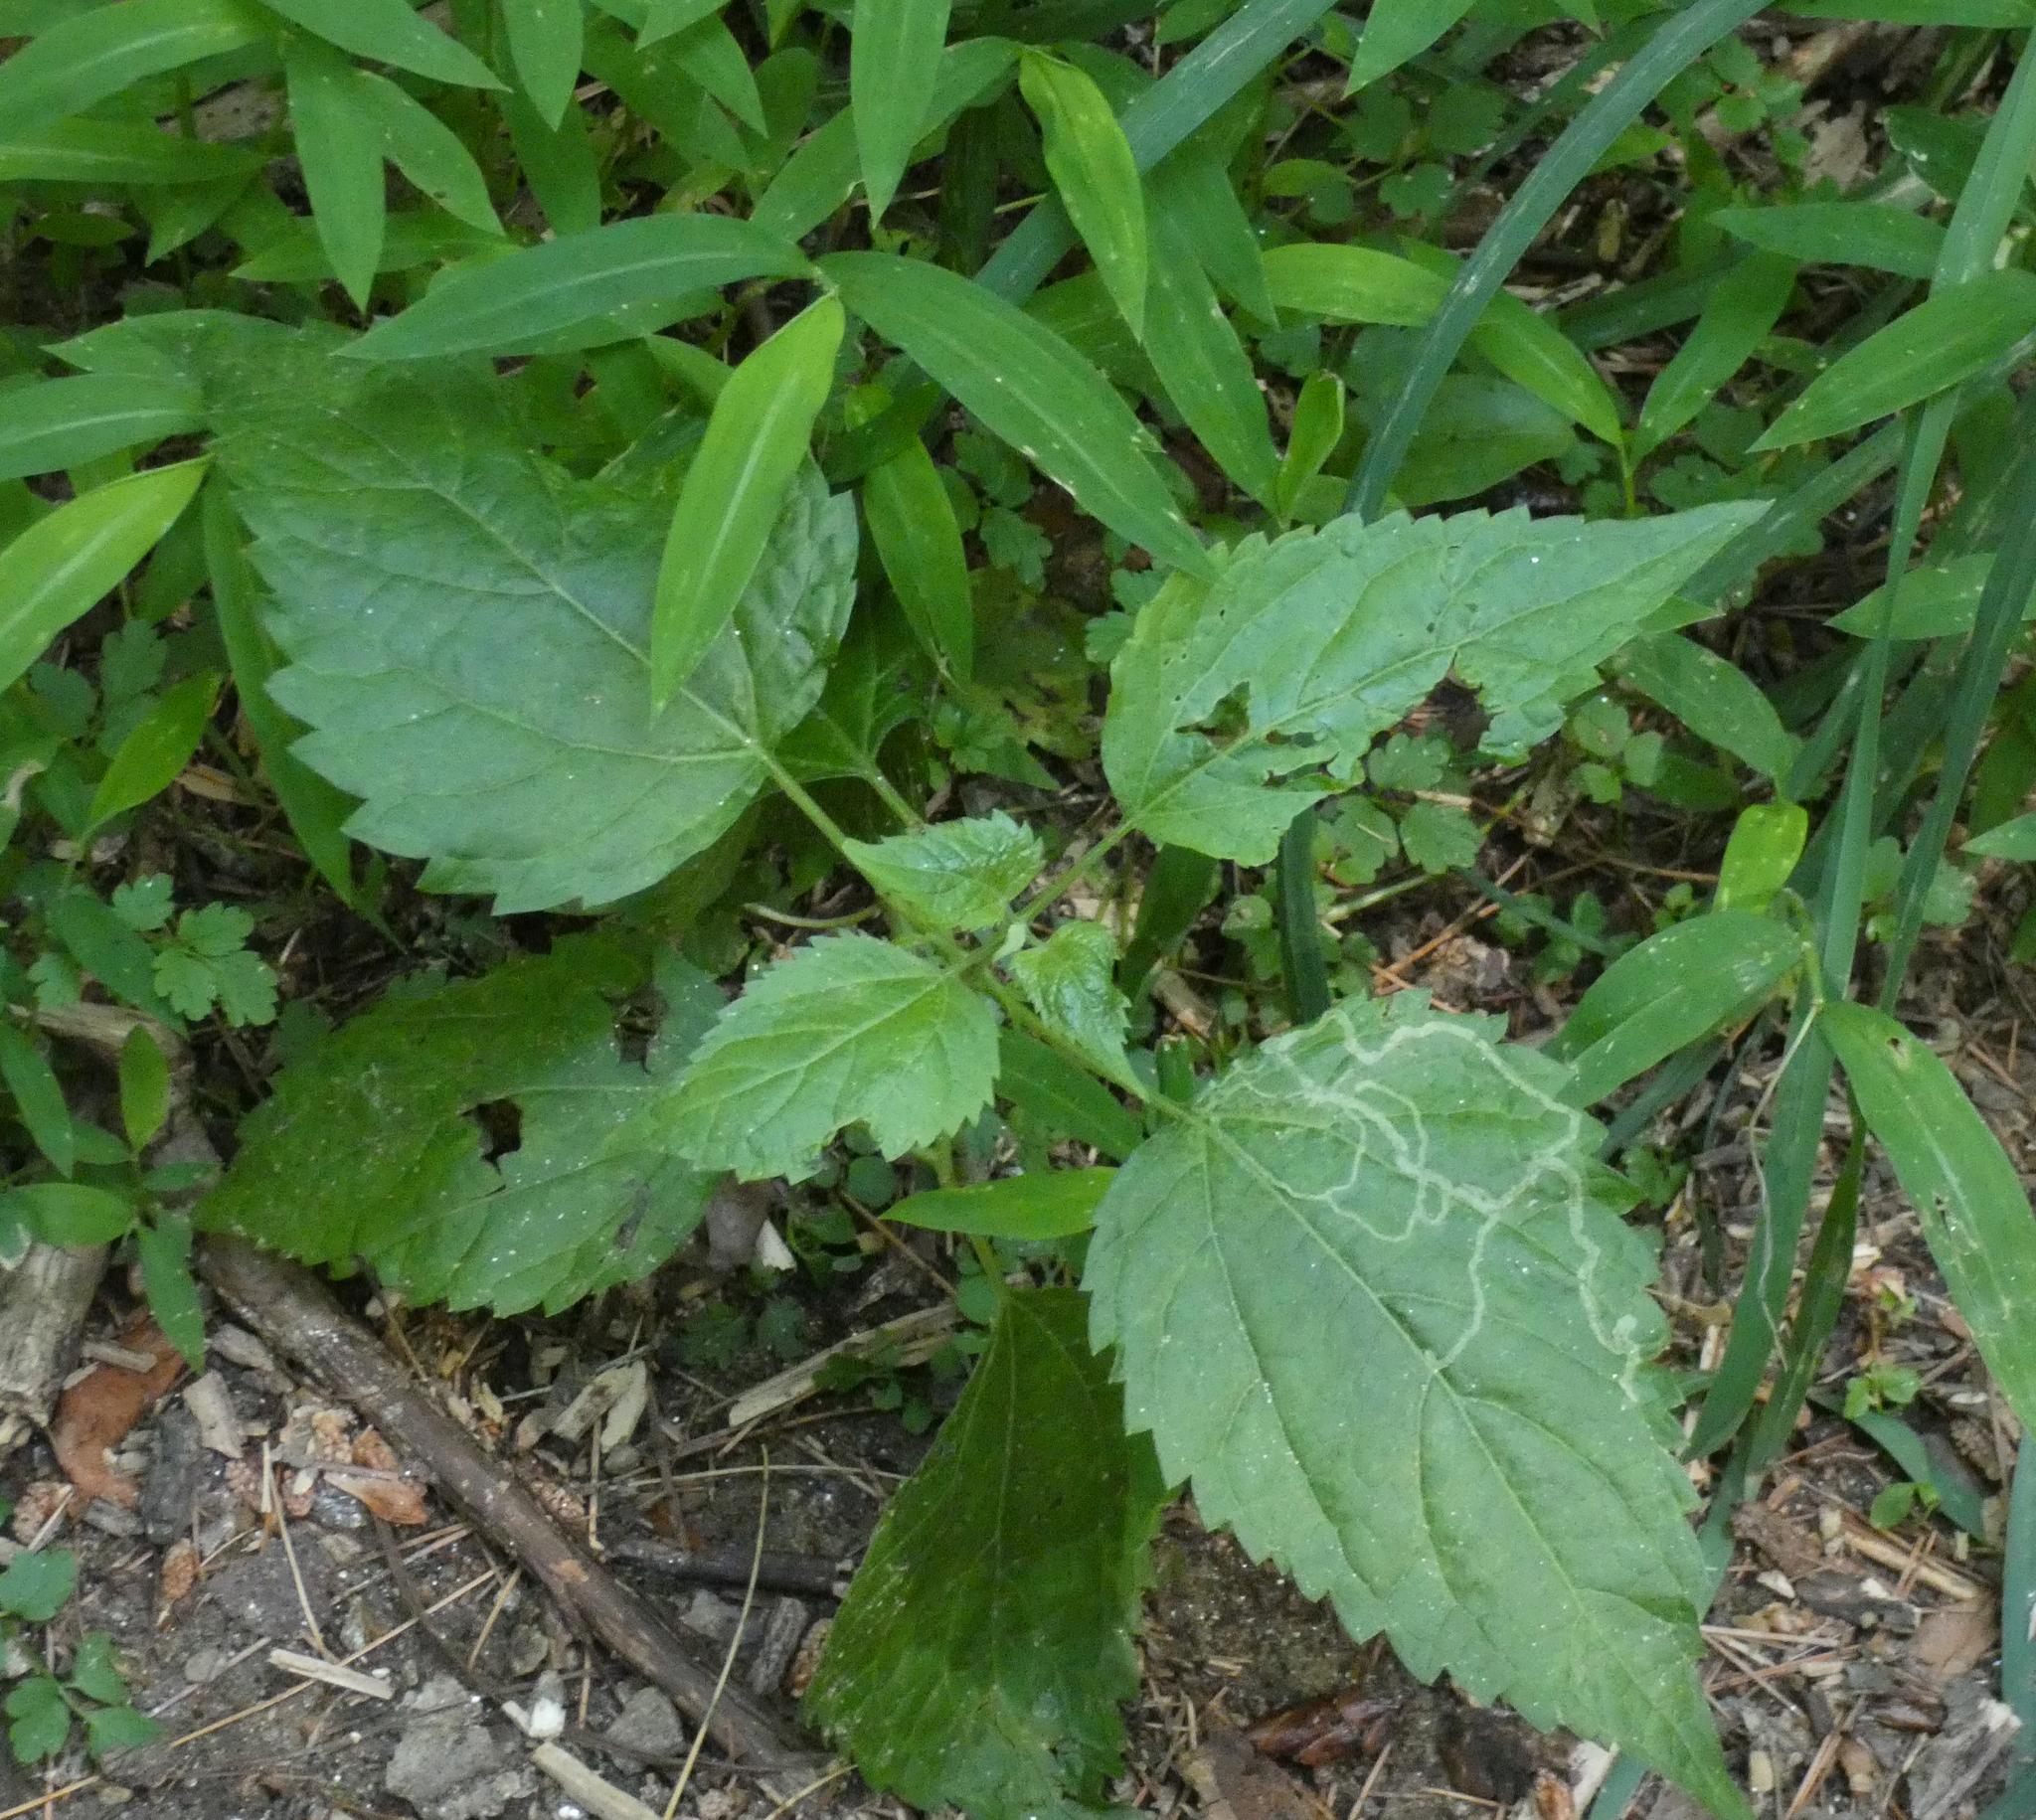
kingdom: Plantae
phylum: Tracheophyta
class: Magnoliopsida
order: Asterales
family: Asteraceae
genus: Ageratina
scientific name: Ageratina altissima
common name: White snakeroot
